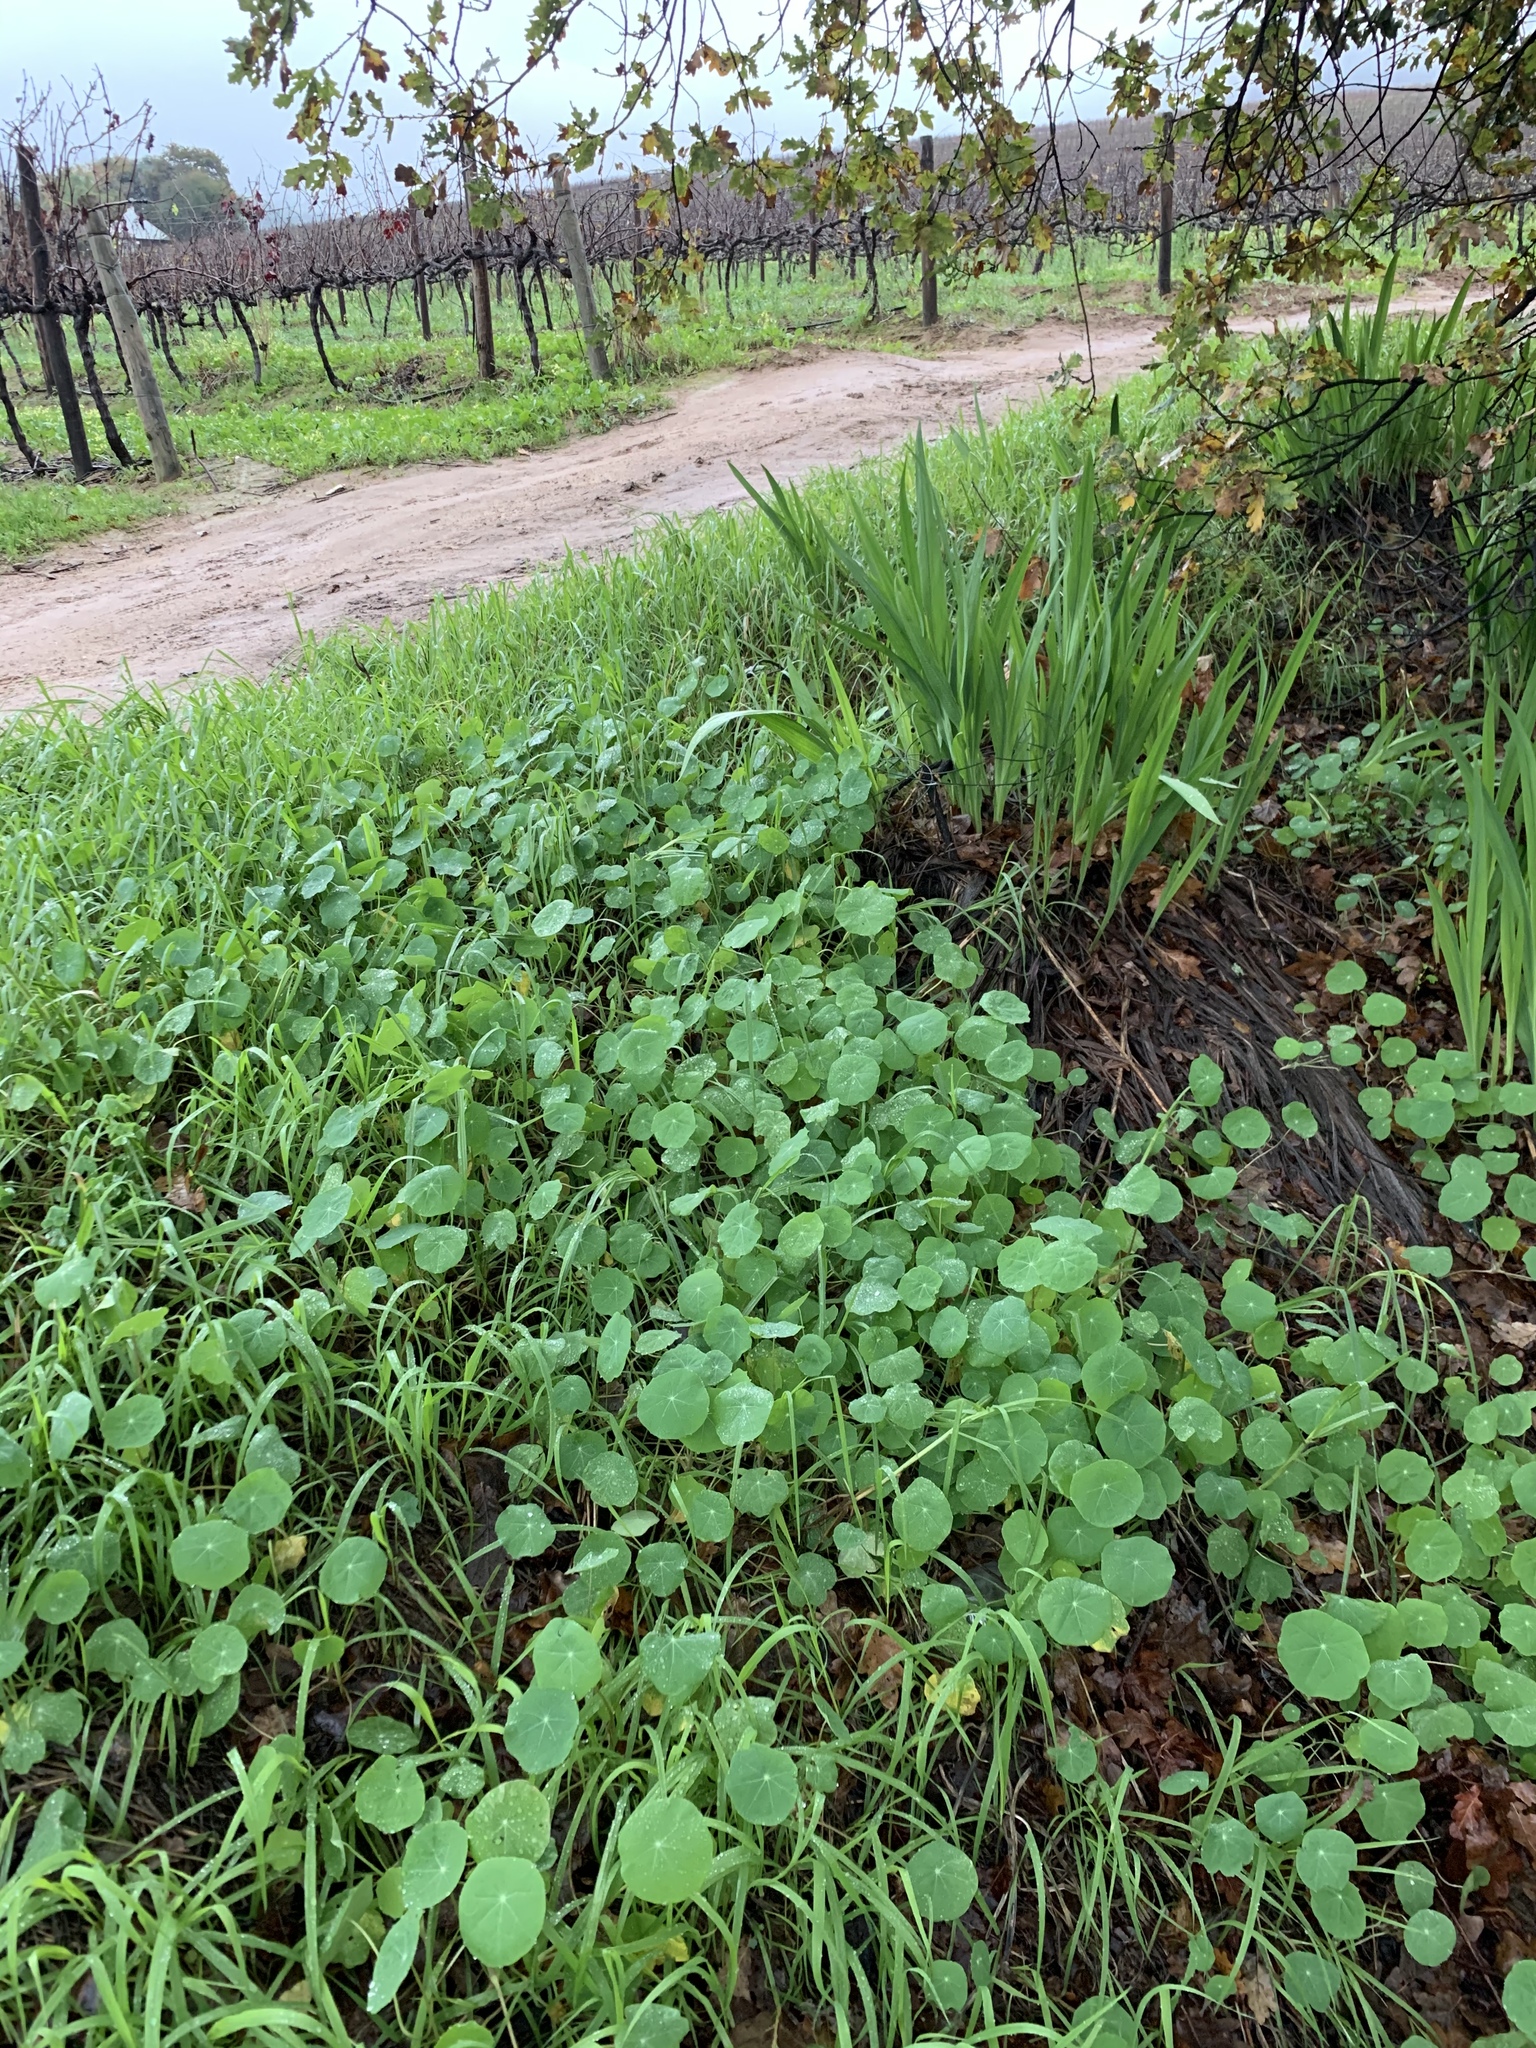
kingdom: Plantae
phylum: Tracheophyta
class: Magnoliopsida
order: Brassicales
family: Tropaeolaceae
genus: Tropaeolum
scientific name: Tropaeolum majus
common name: Nasturtium
